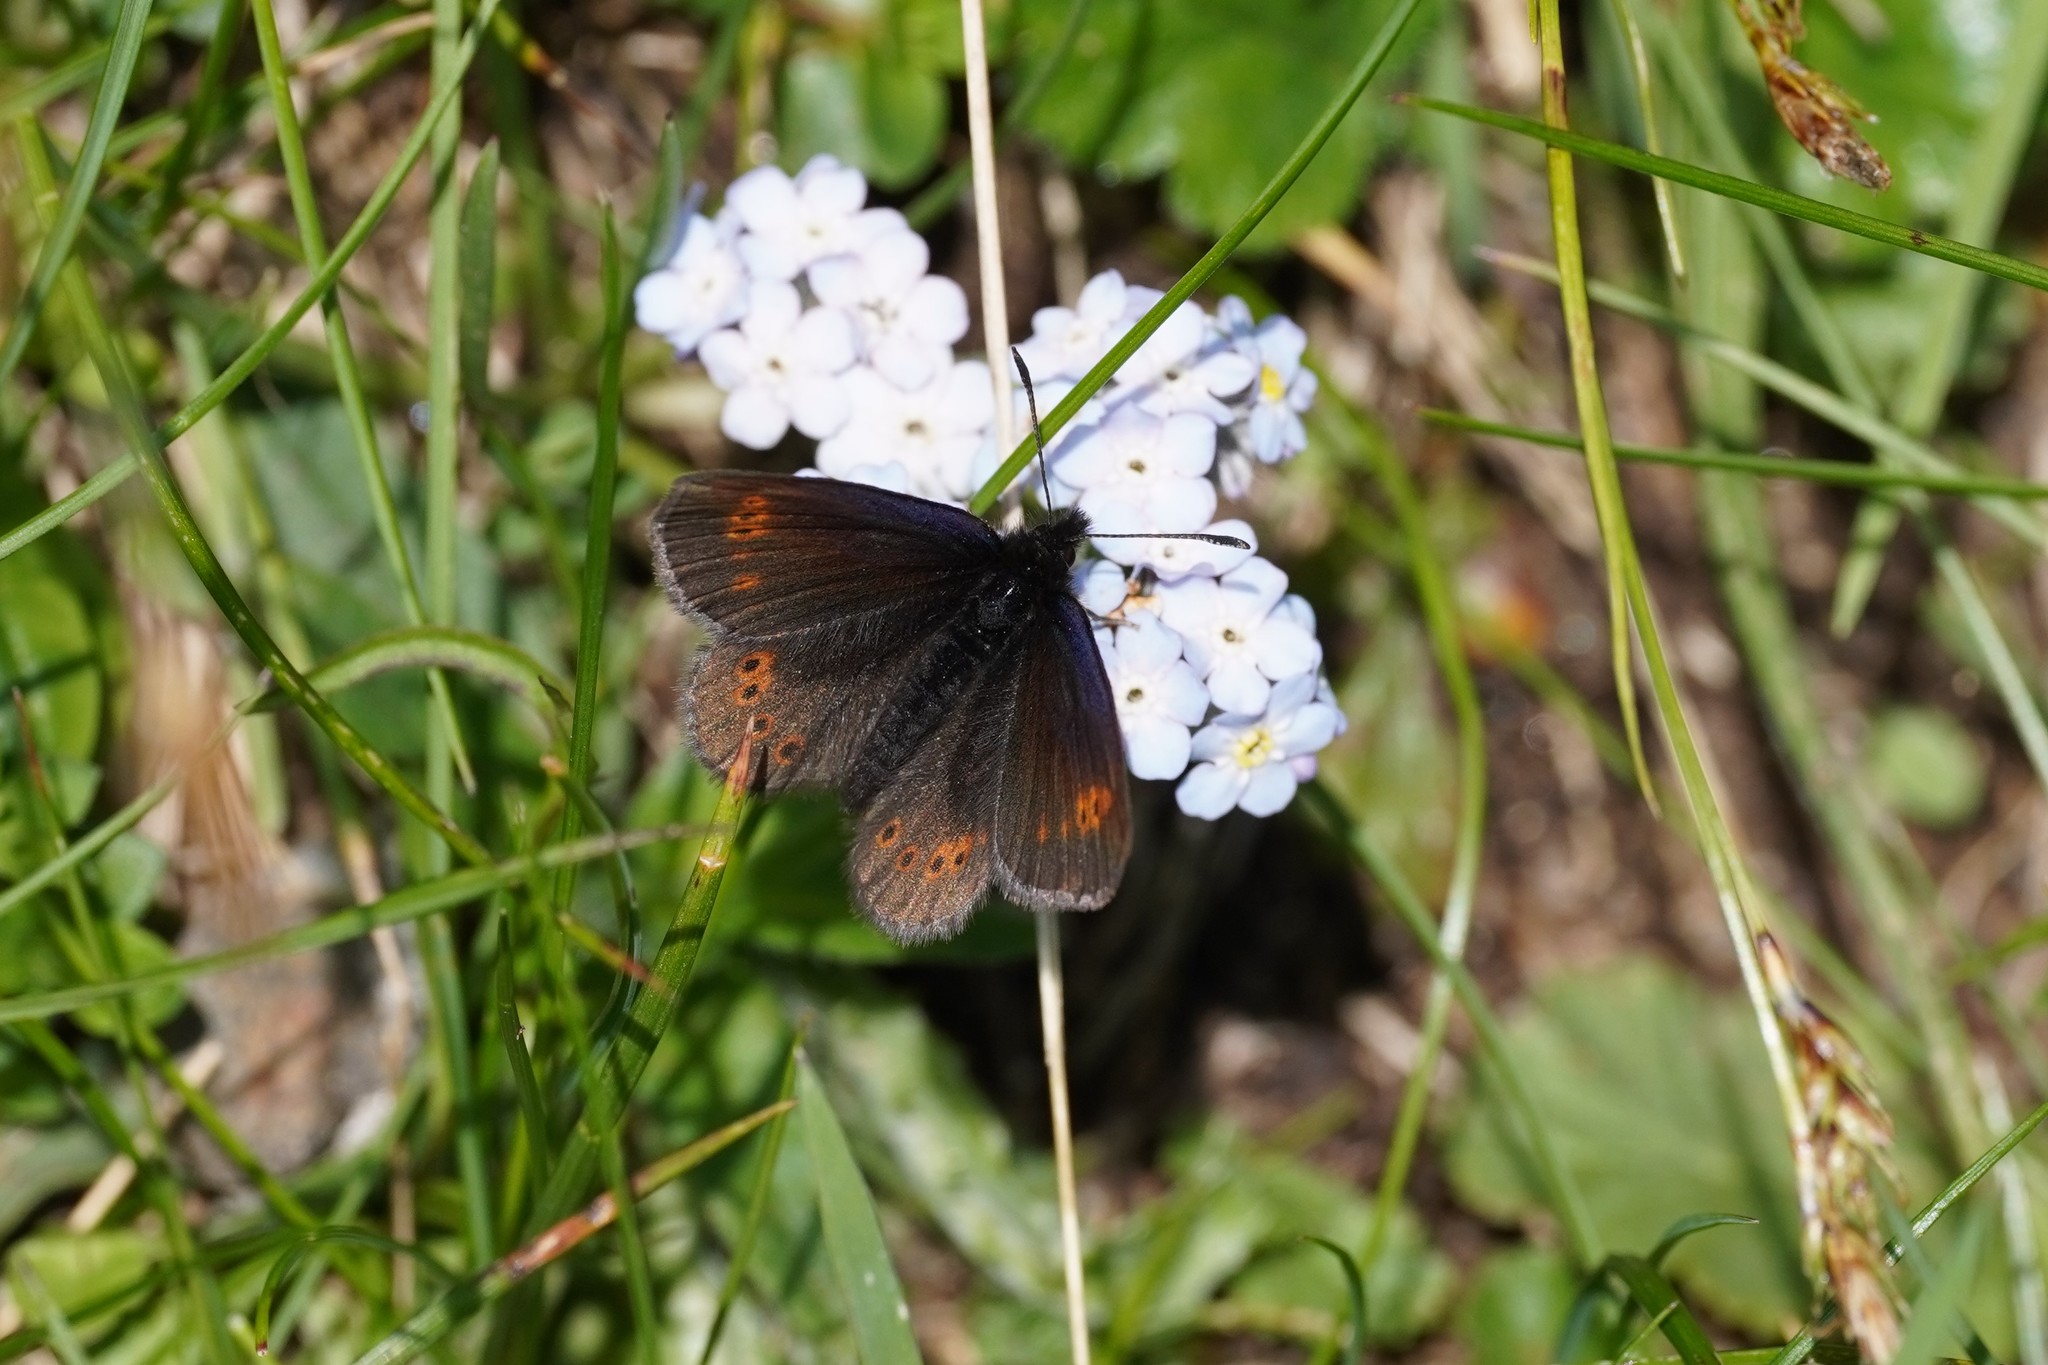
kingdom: Animalia
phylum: Arthropoda
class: Insecta
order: Lepidoptera
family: Nymphalidae
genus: Erebia
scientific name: Erebia flavofasciata
